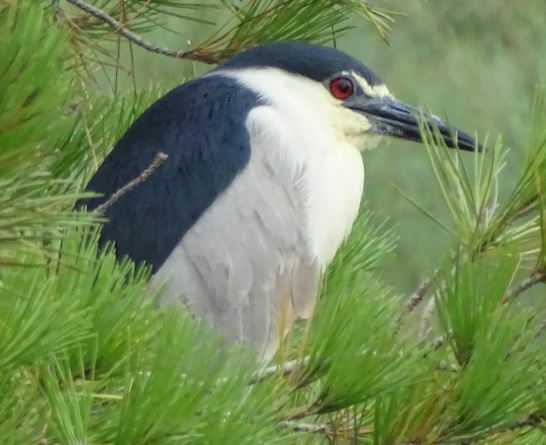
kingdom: Animalia
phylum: Chordata
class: Aves
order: Pelecaniformes
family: Ardeidae
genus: Nycticorax
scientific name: Nycticorax nycticorax
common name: Black-crowned night heron
